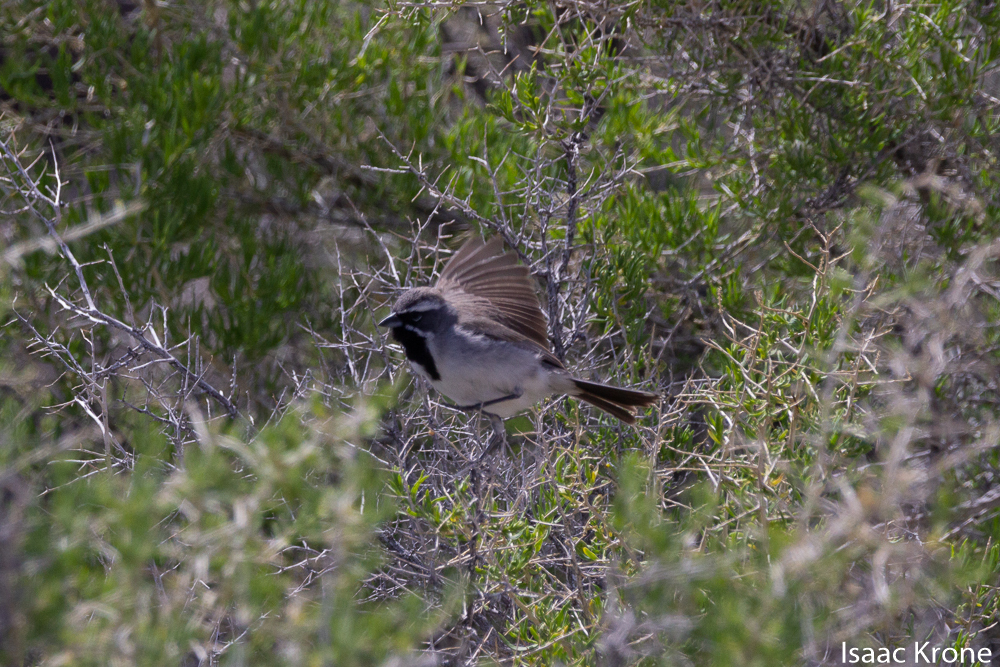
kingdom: Animalia
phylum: Chordata
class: Aves
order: Passeriformes
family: Passerellidae
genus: Amphispiza
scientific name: Amphispiza bilineata
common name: Black-throated sparrow
